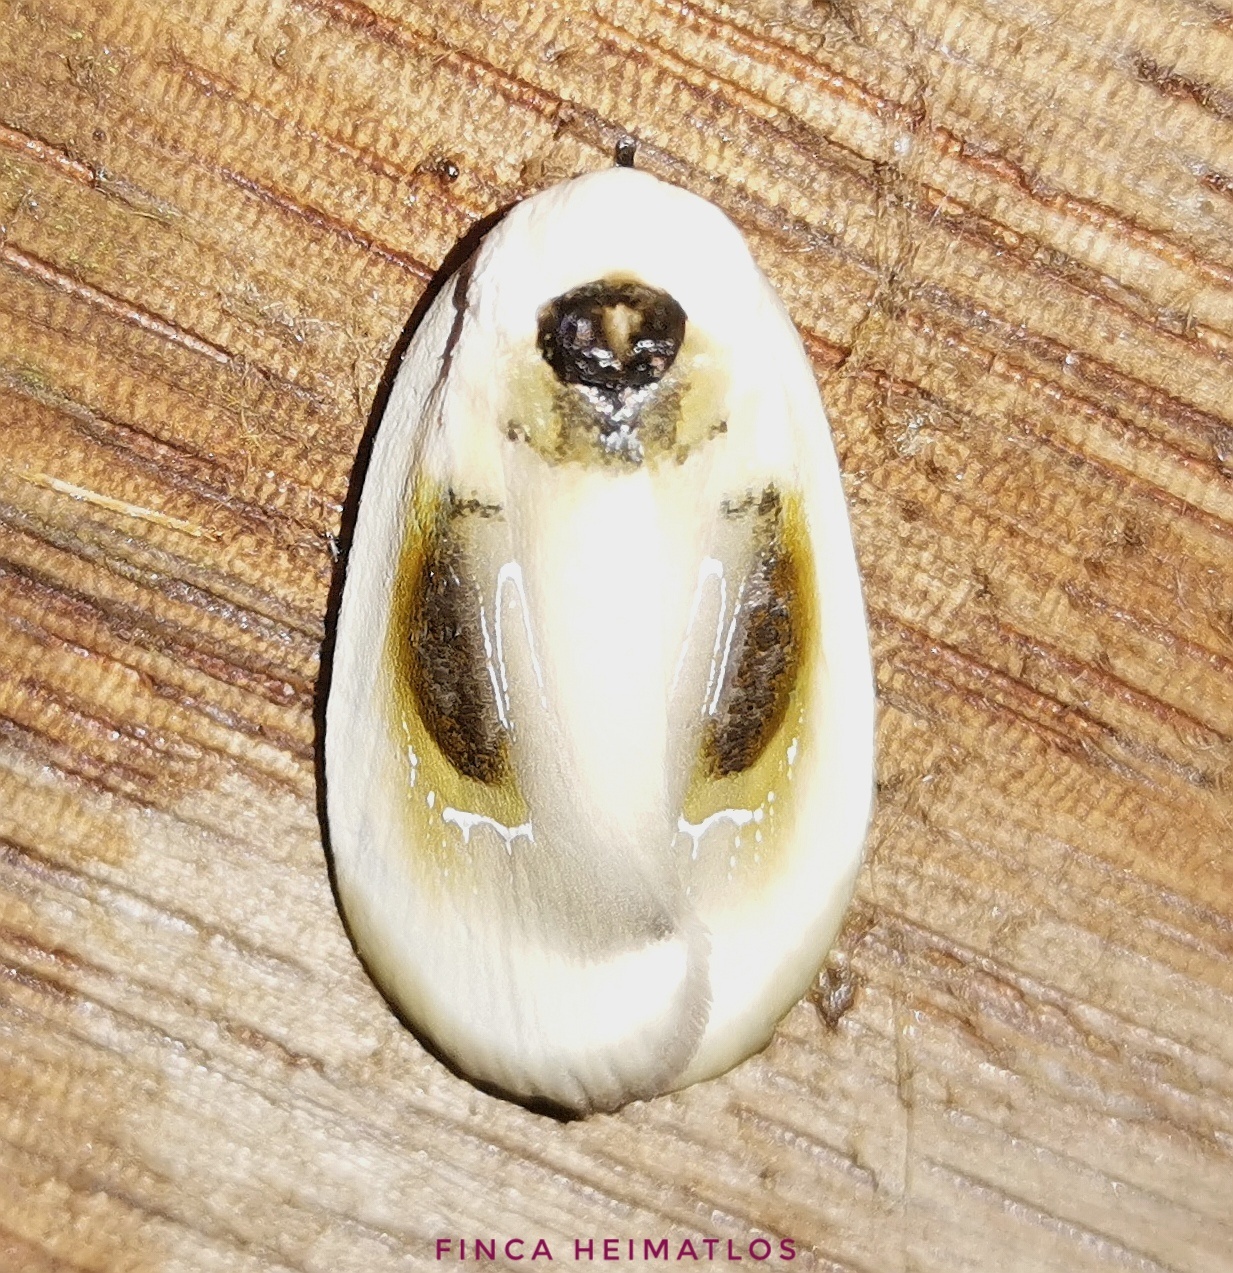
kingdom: Animalia
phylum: Arthropoda
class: Insecta
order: Lepidoptera
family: Depressariidae
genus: Mysaromima
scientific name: Mysaromima liquescens
